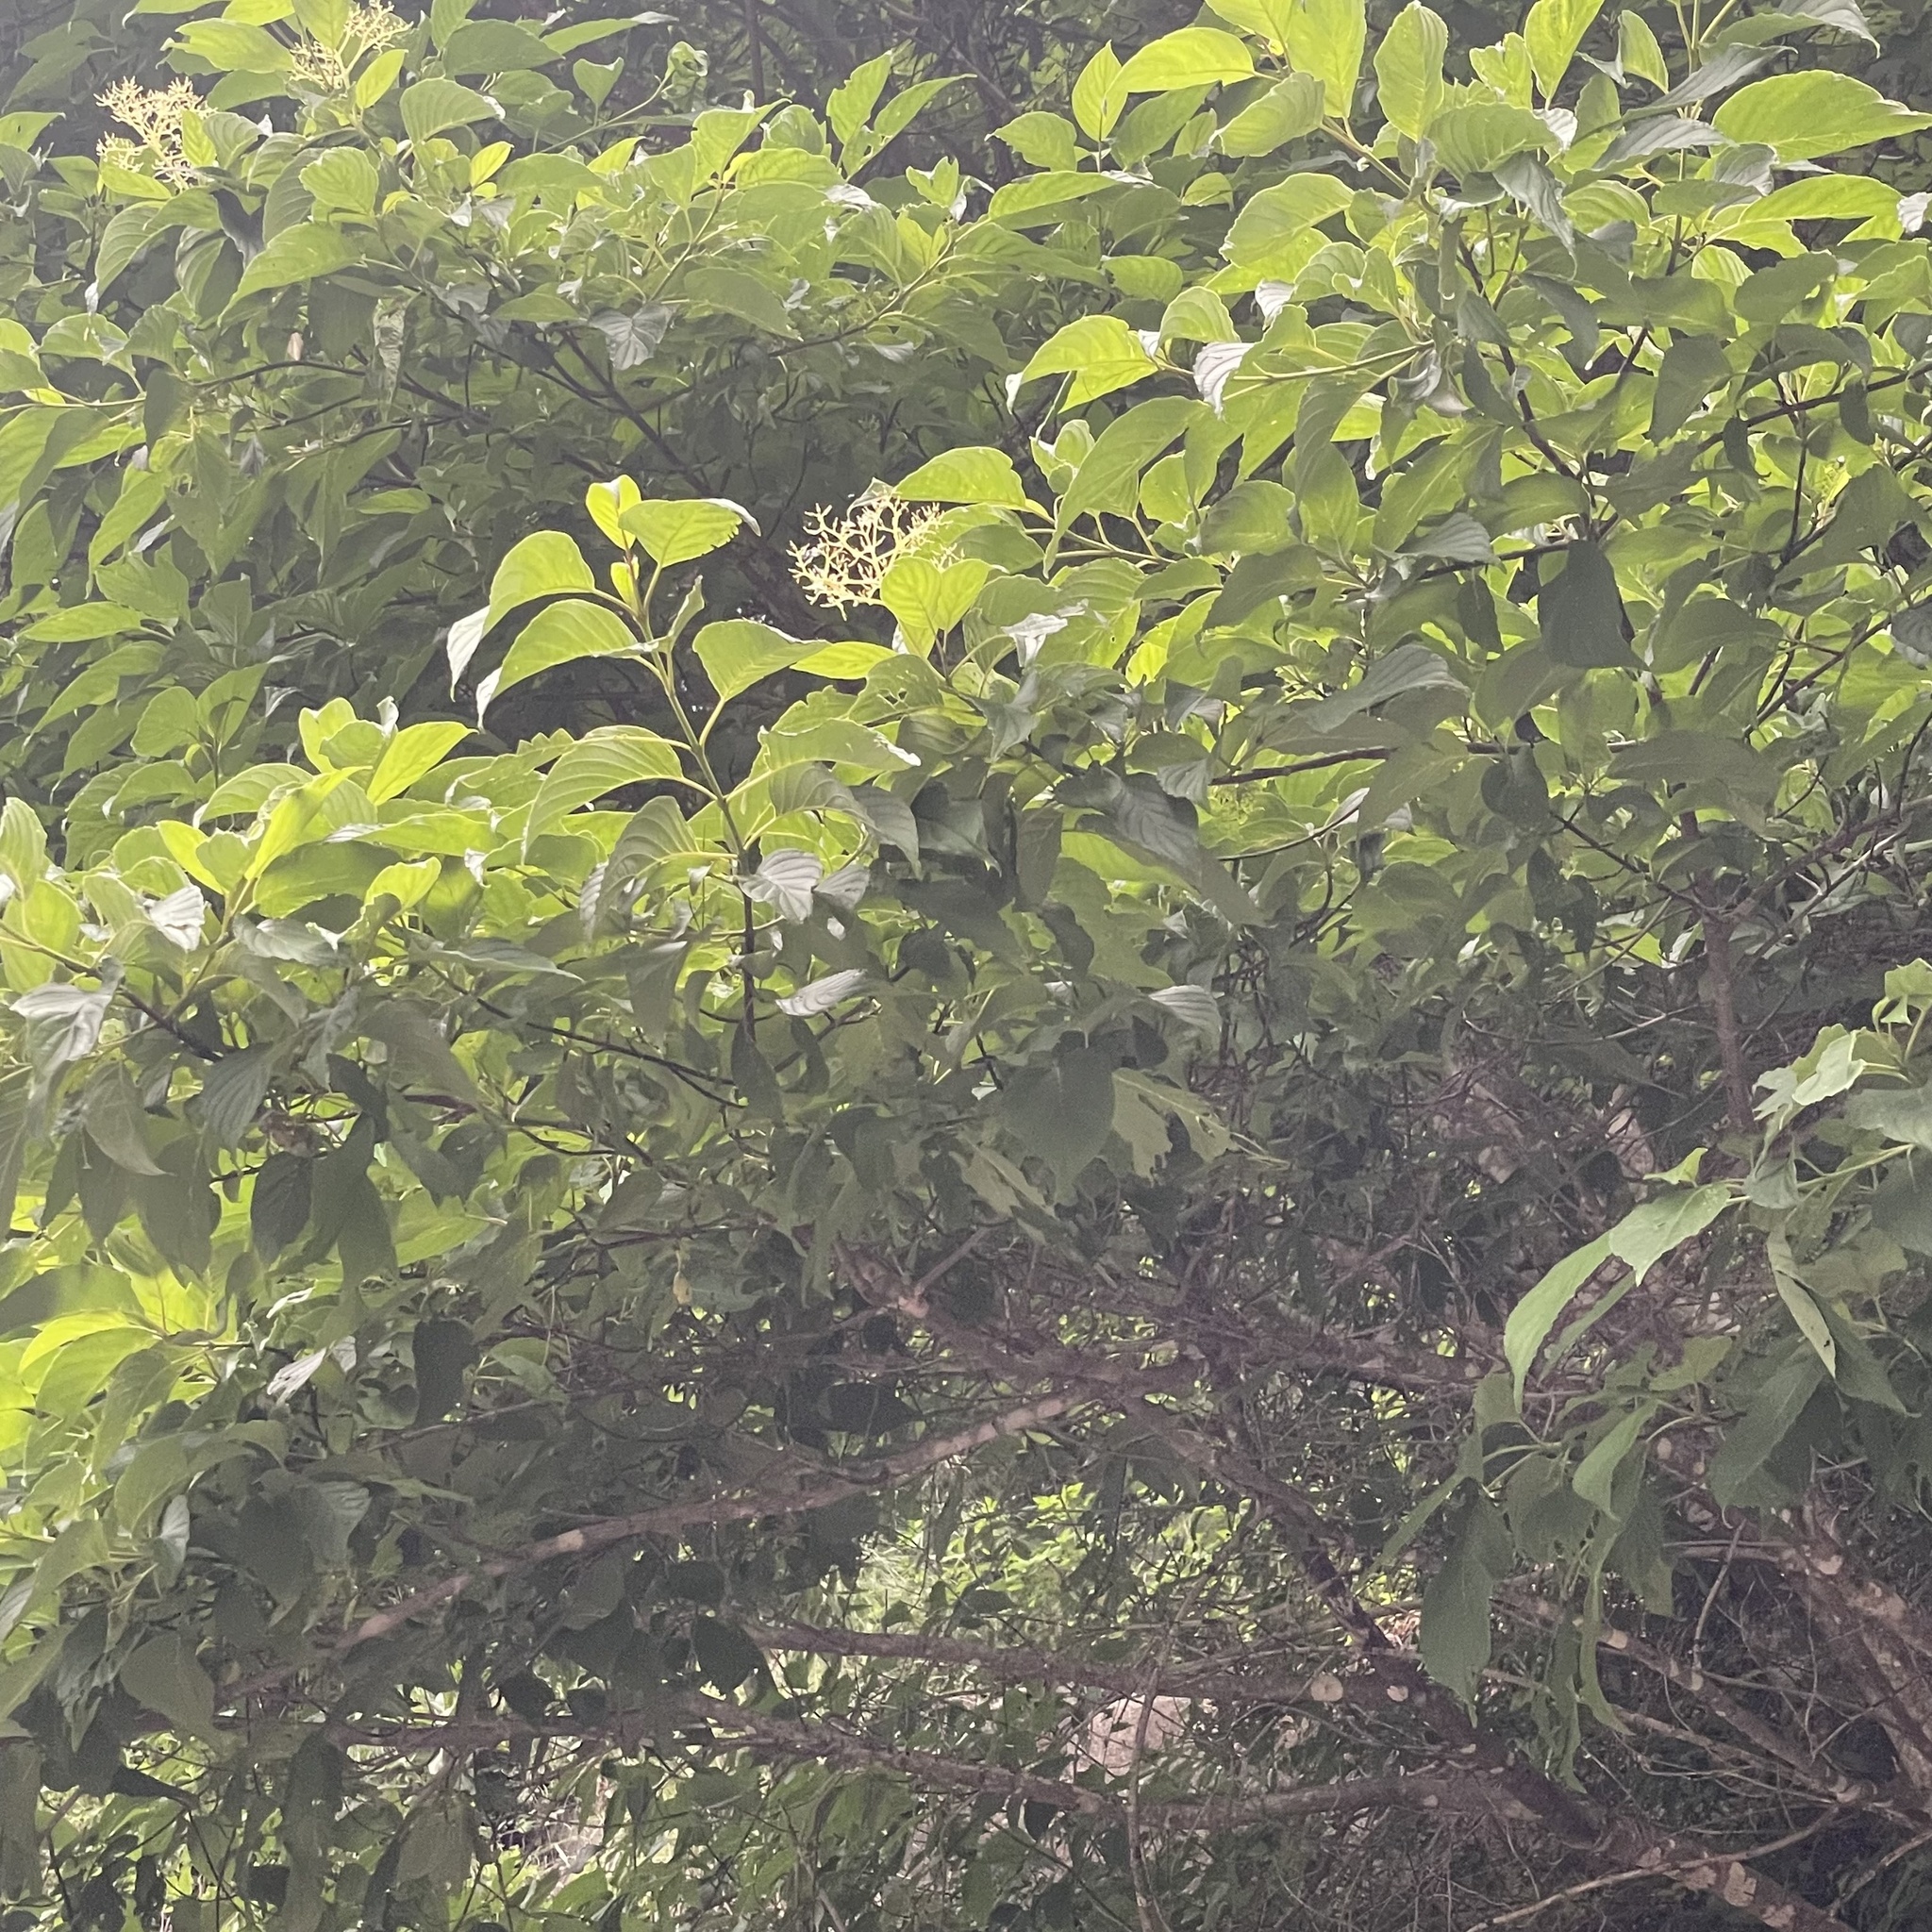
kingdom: Plantae
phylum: Tracheophyta
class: Magnoliopsida
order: Cornales
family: Cornaceae
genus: Cornus
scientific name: Cornus macrophylla
